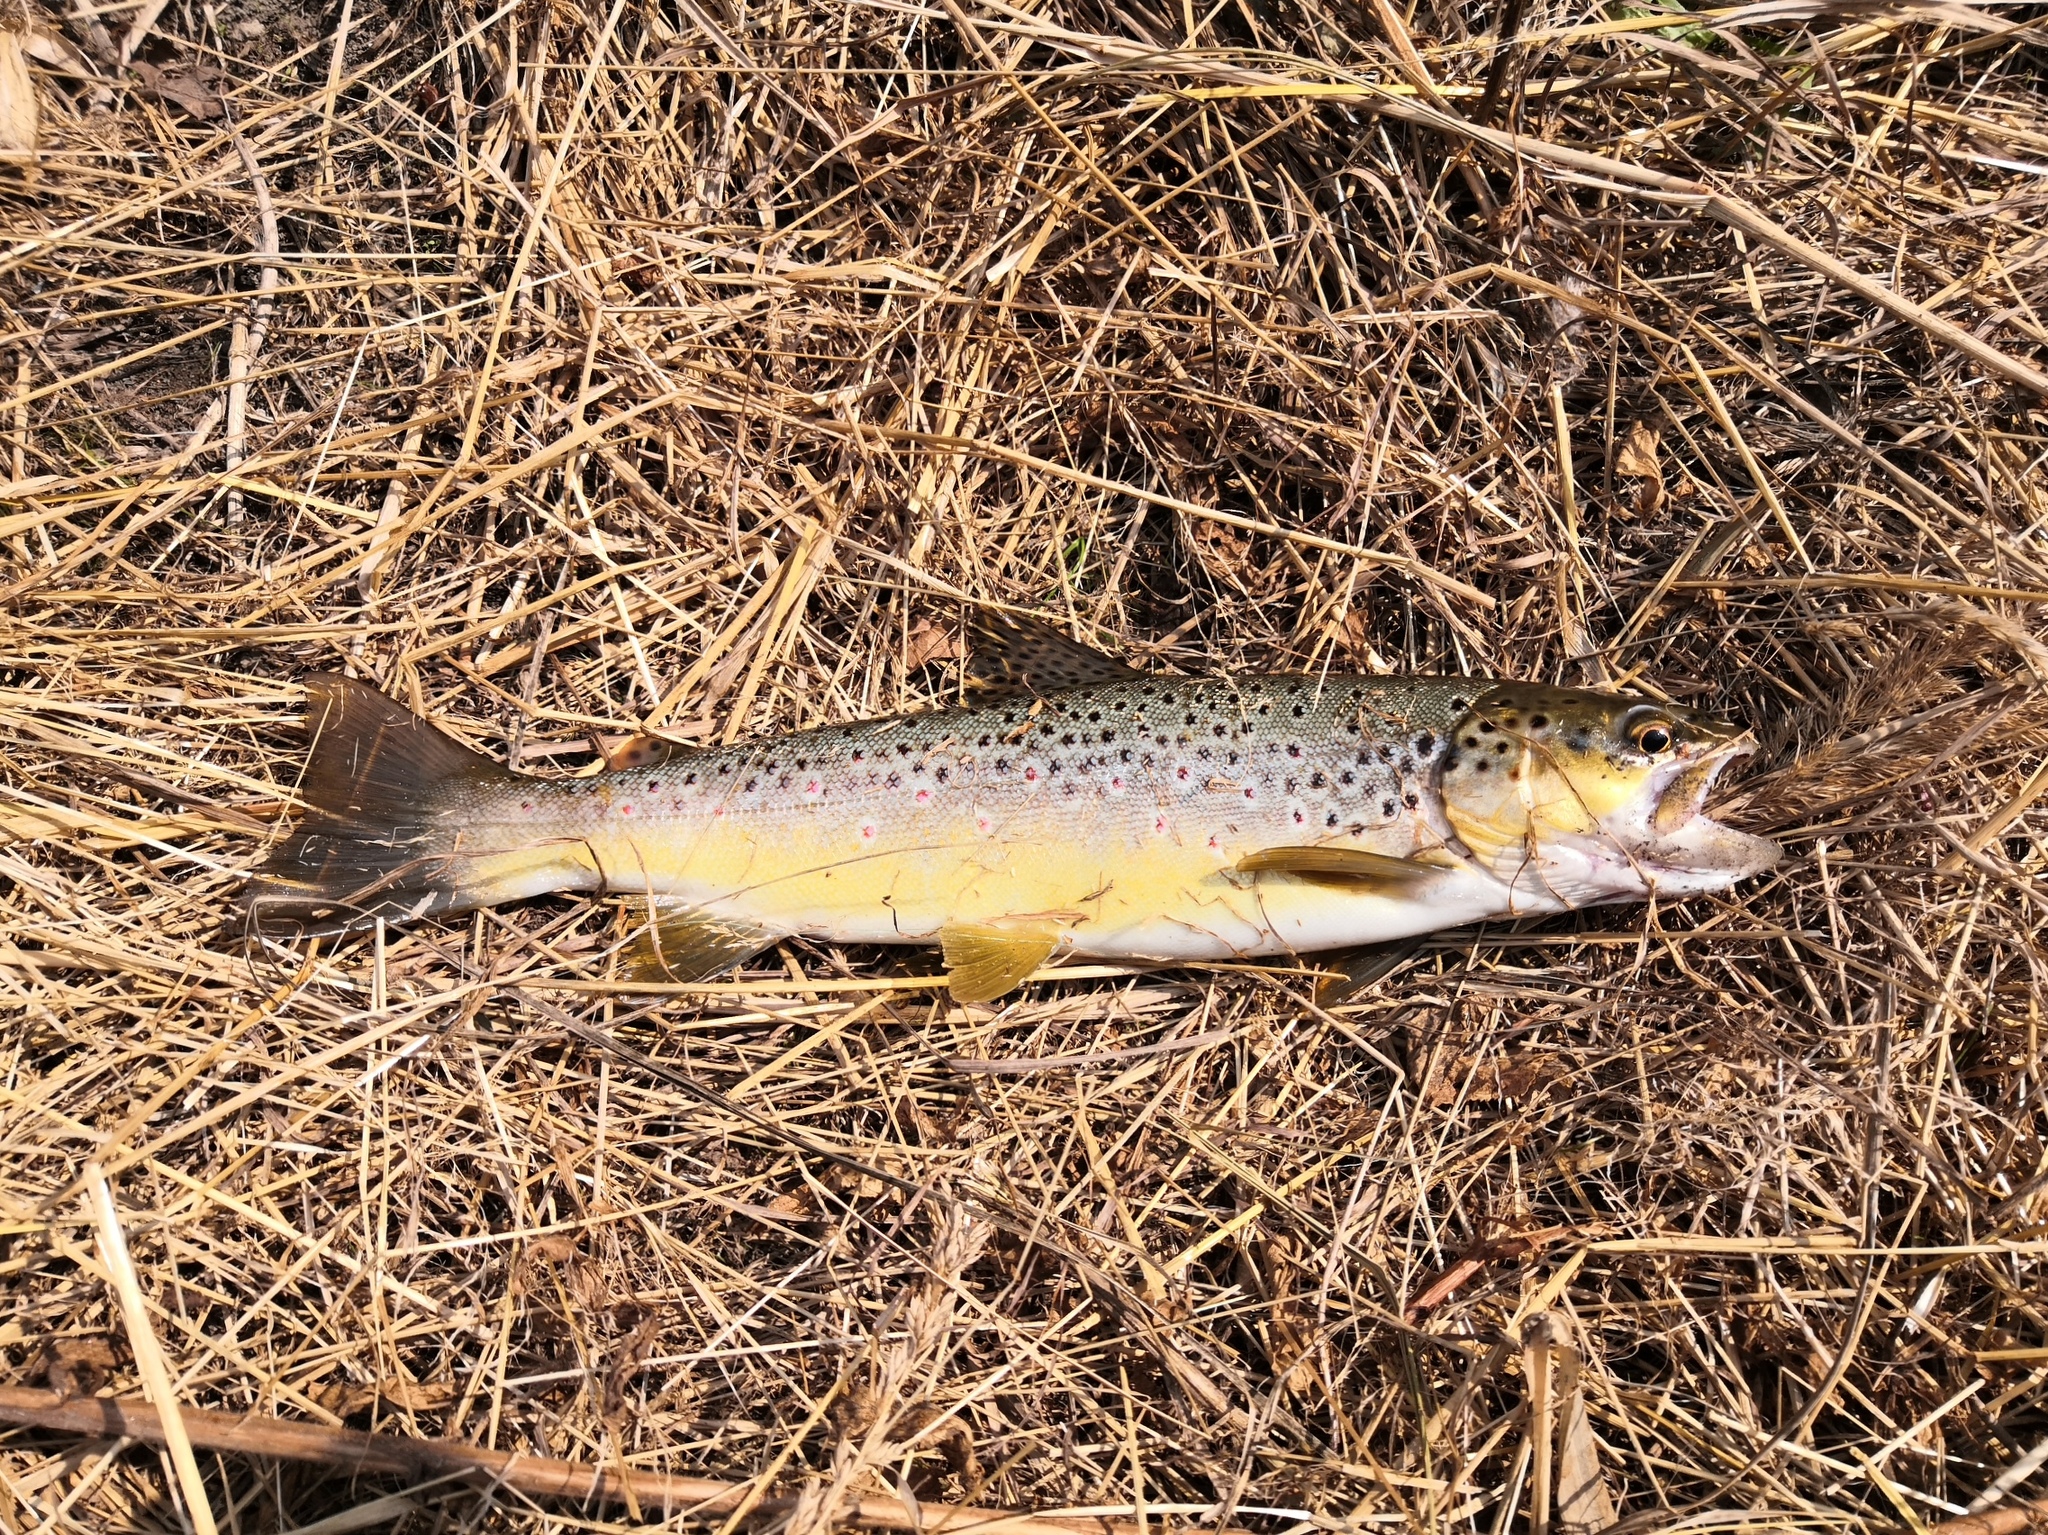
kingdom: Animalia
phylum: Chordata
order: Salmoniformes
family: Salmonidae
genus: Salmo
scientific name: Salmo trutta
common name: Brown trout
